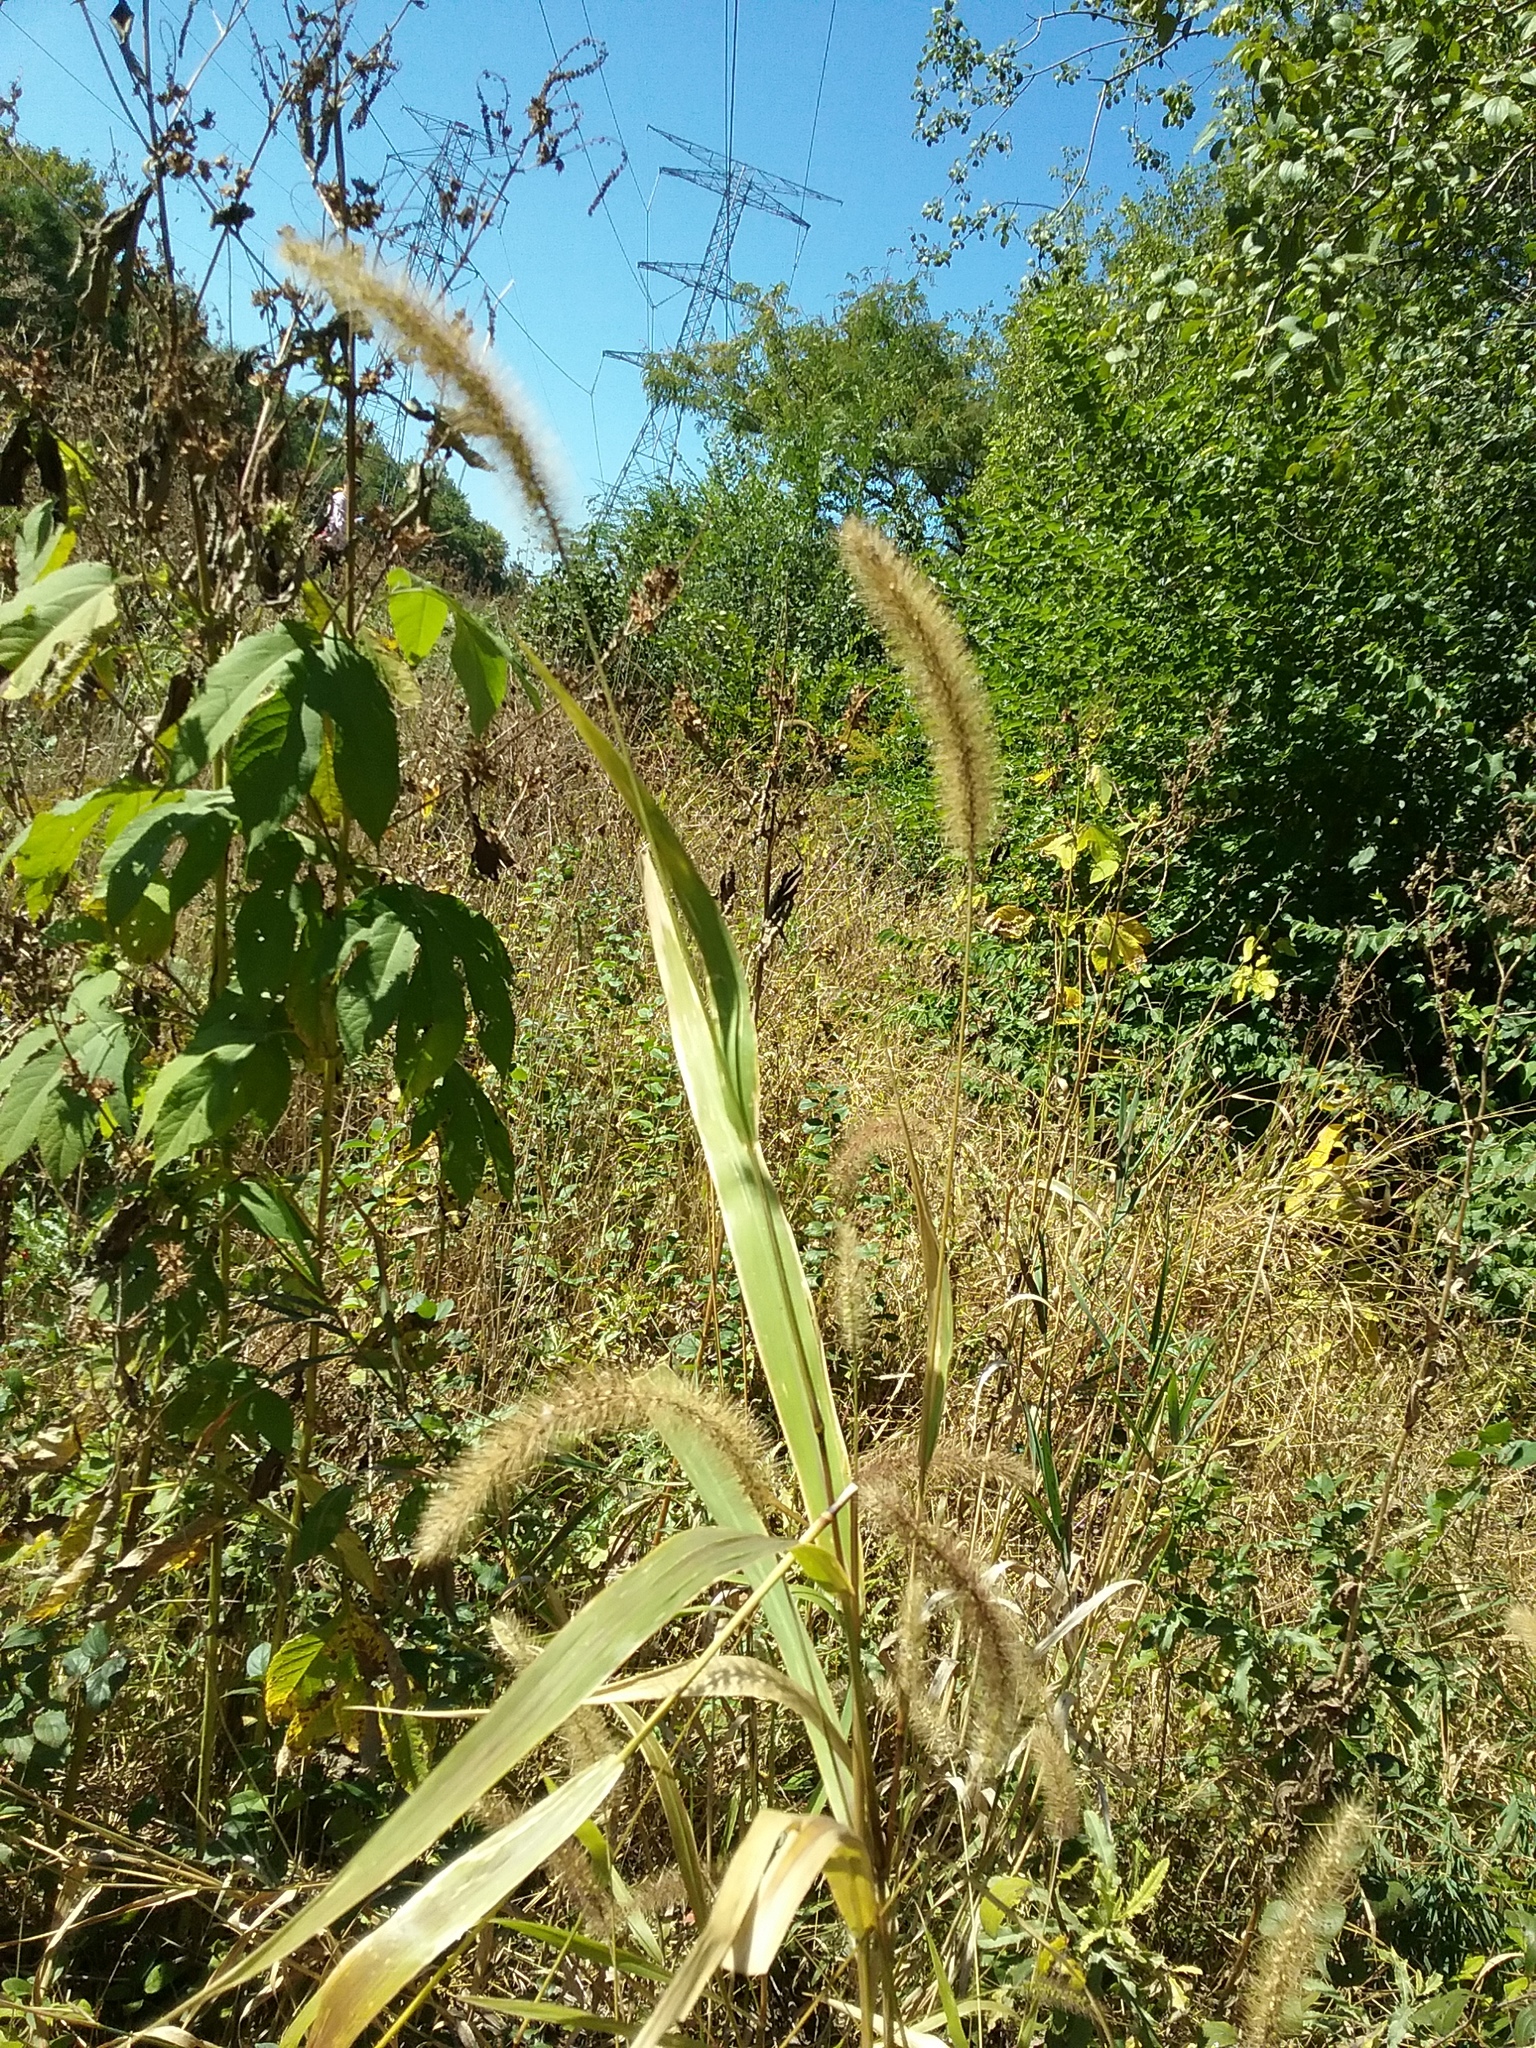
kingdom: Plantae
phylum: Tracheophyta
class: Liliopsida
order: Poales
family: Poaceae
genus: Setaria
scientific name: Setaria faberi
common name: Nodding bristle-grass
